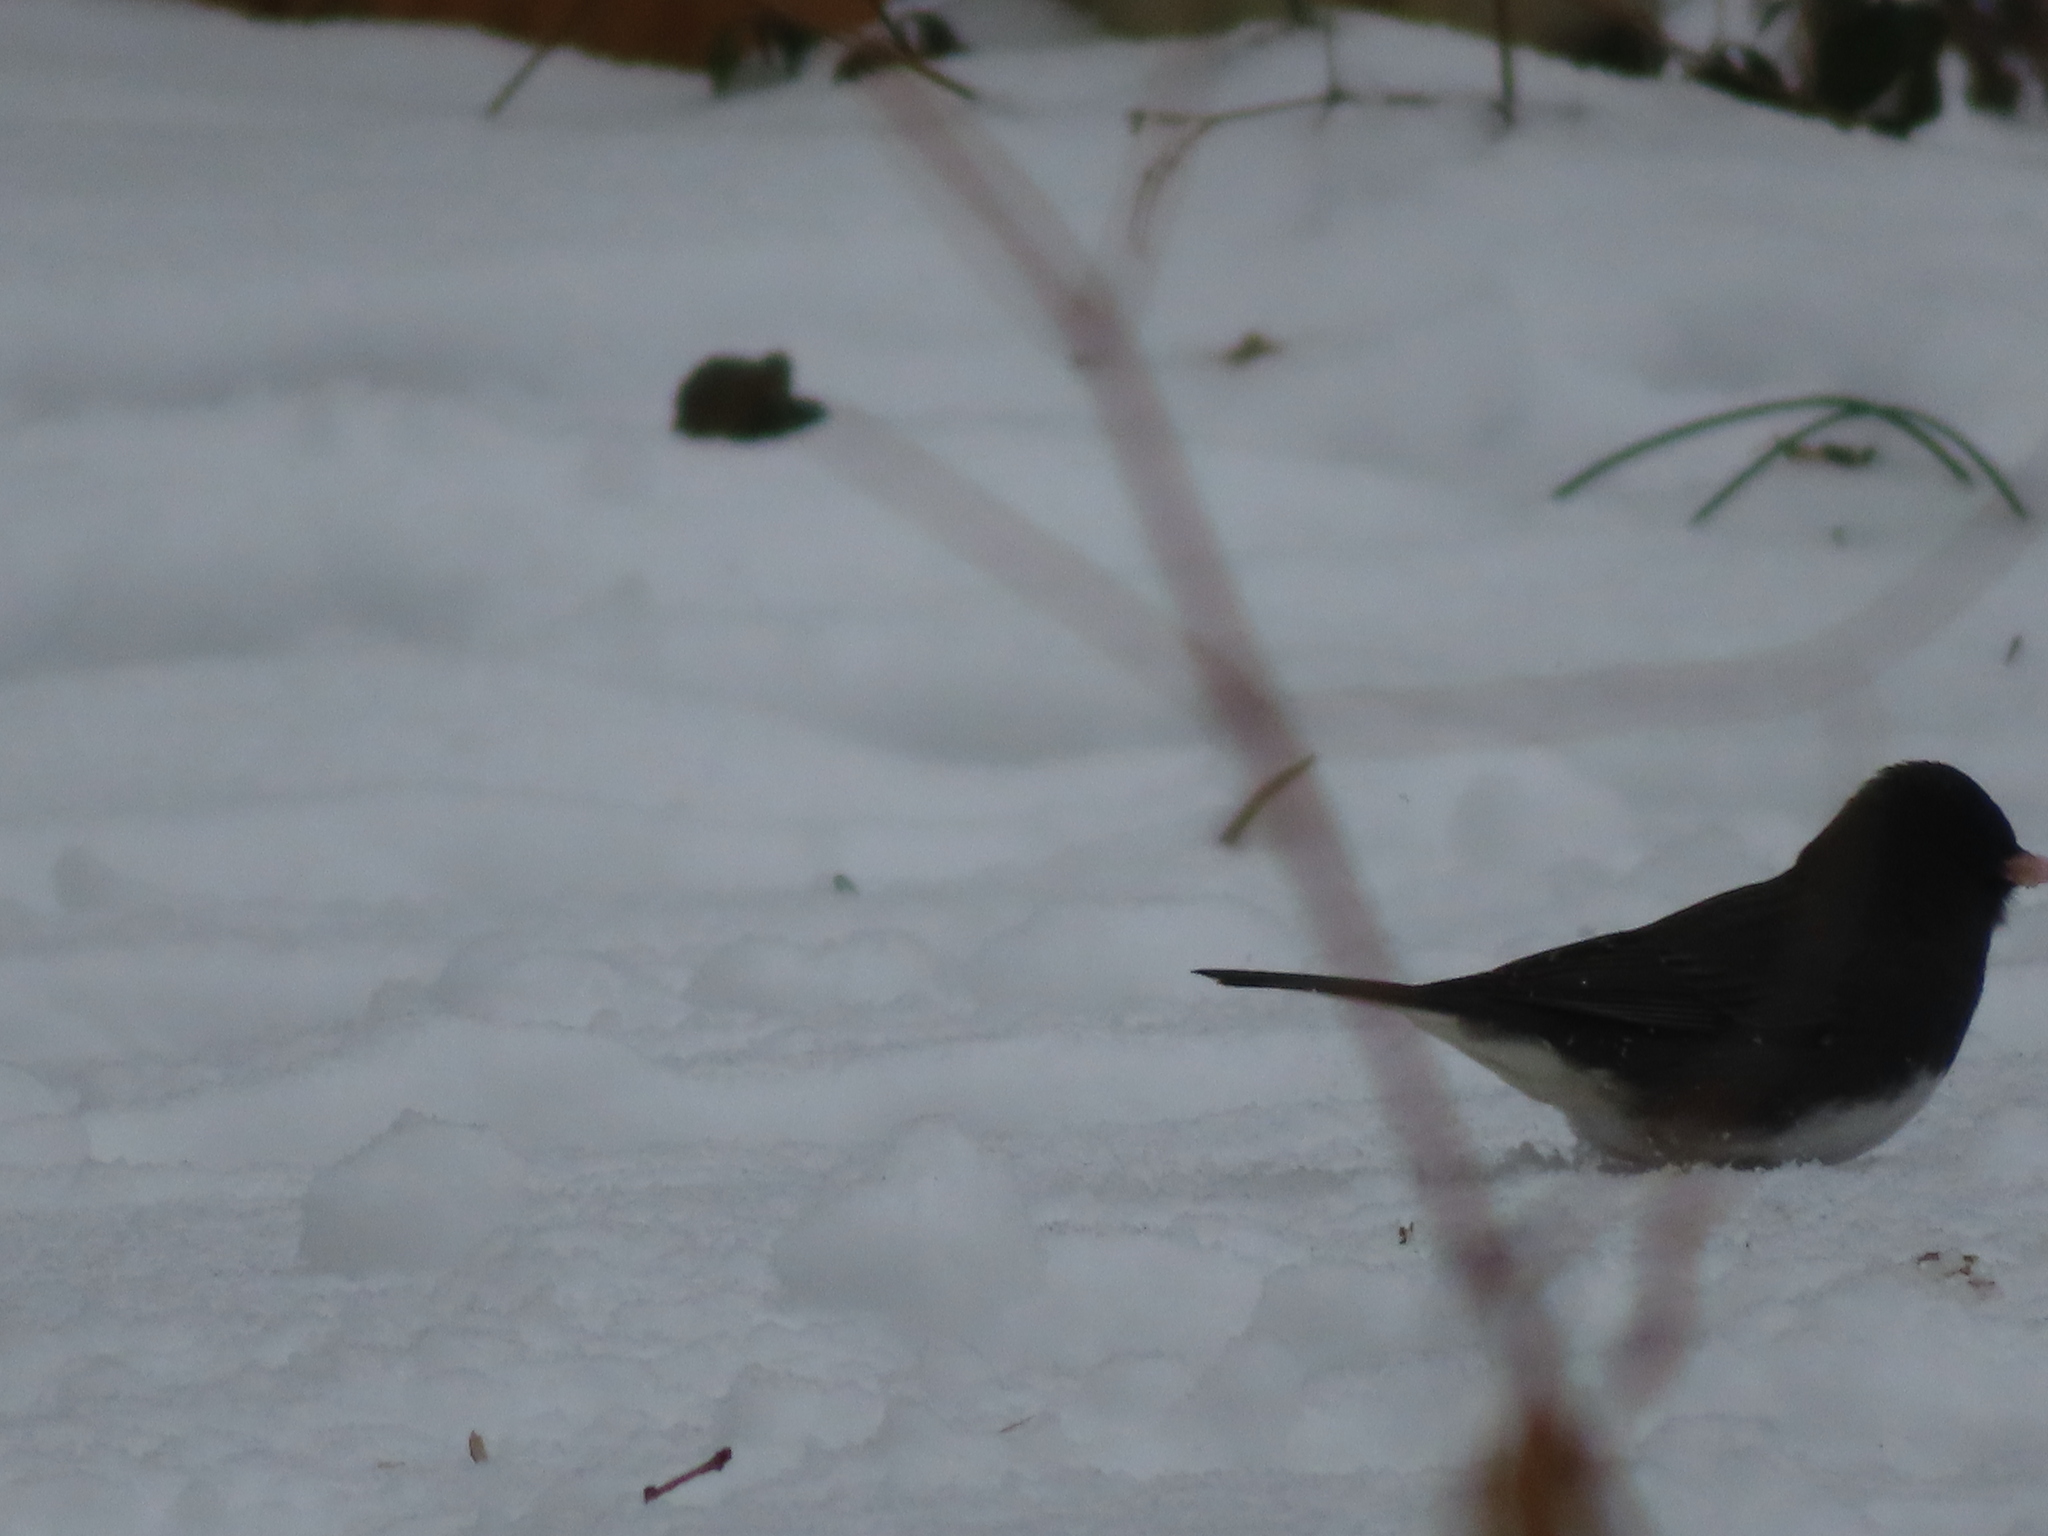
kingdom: Animalia
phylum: Chordata
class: Aves
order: Passeriformes
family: Passerellidae
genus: Junco
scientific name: Junco hyemalis
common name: Dark-eyed junco
